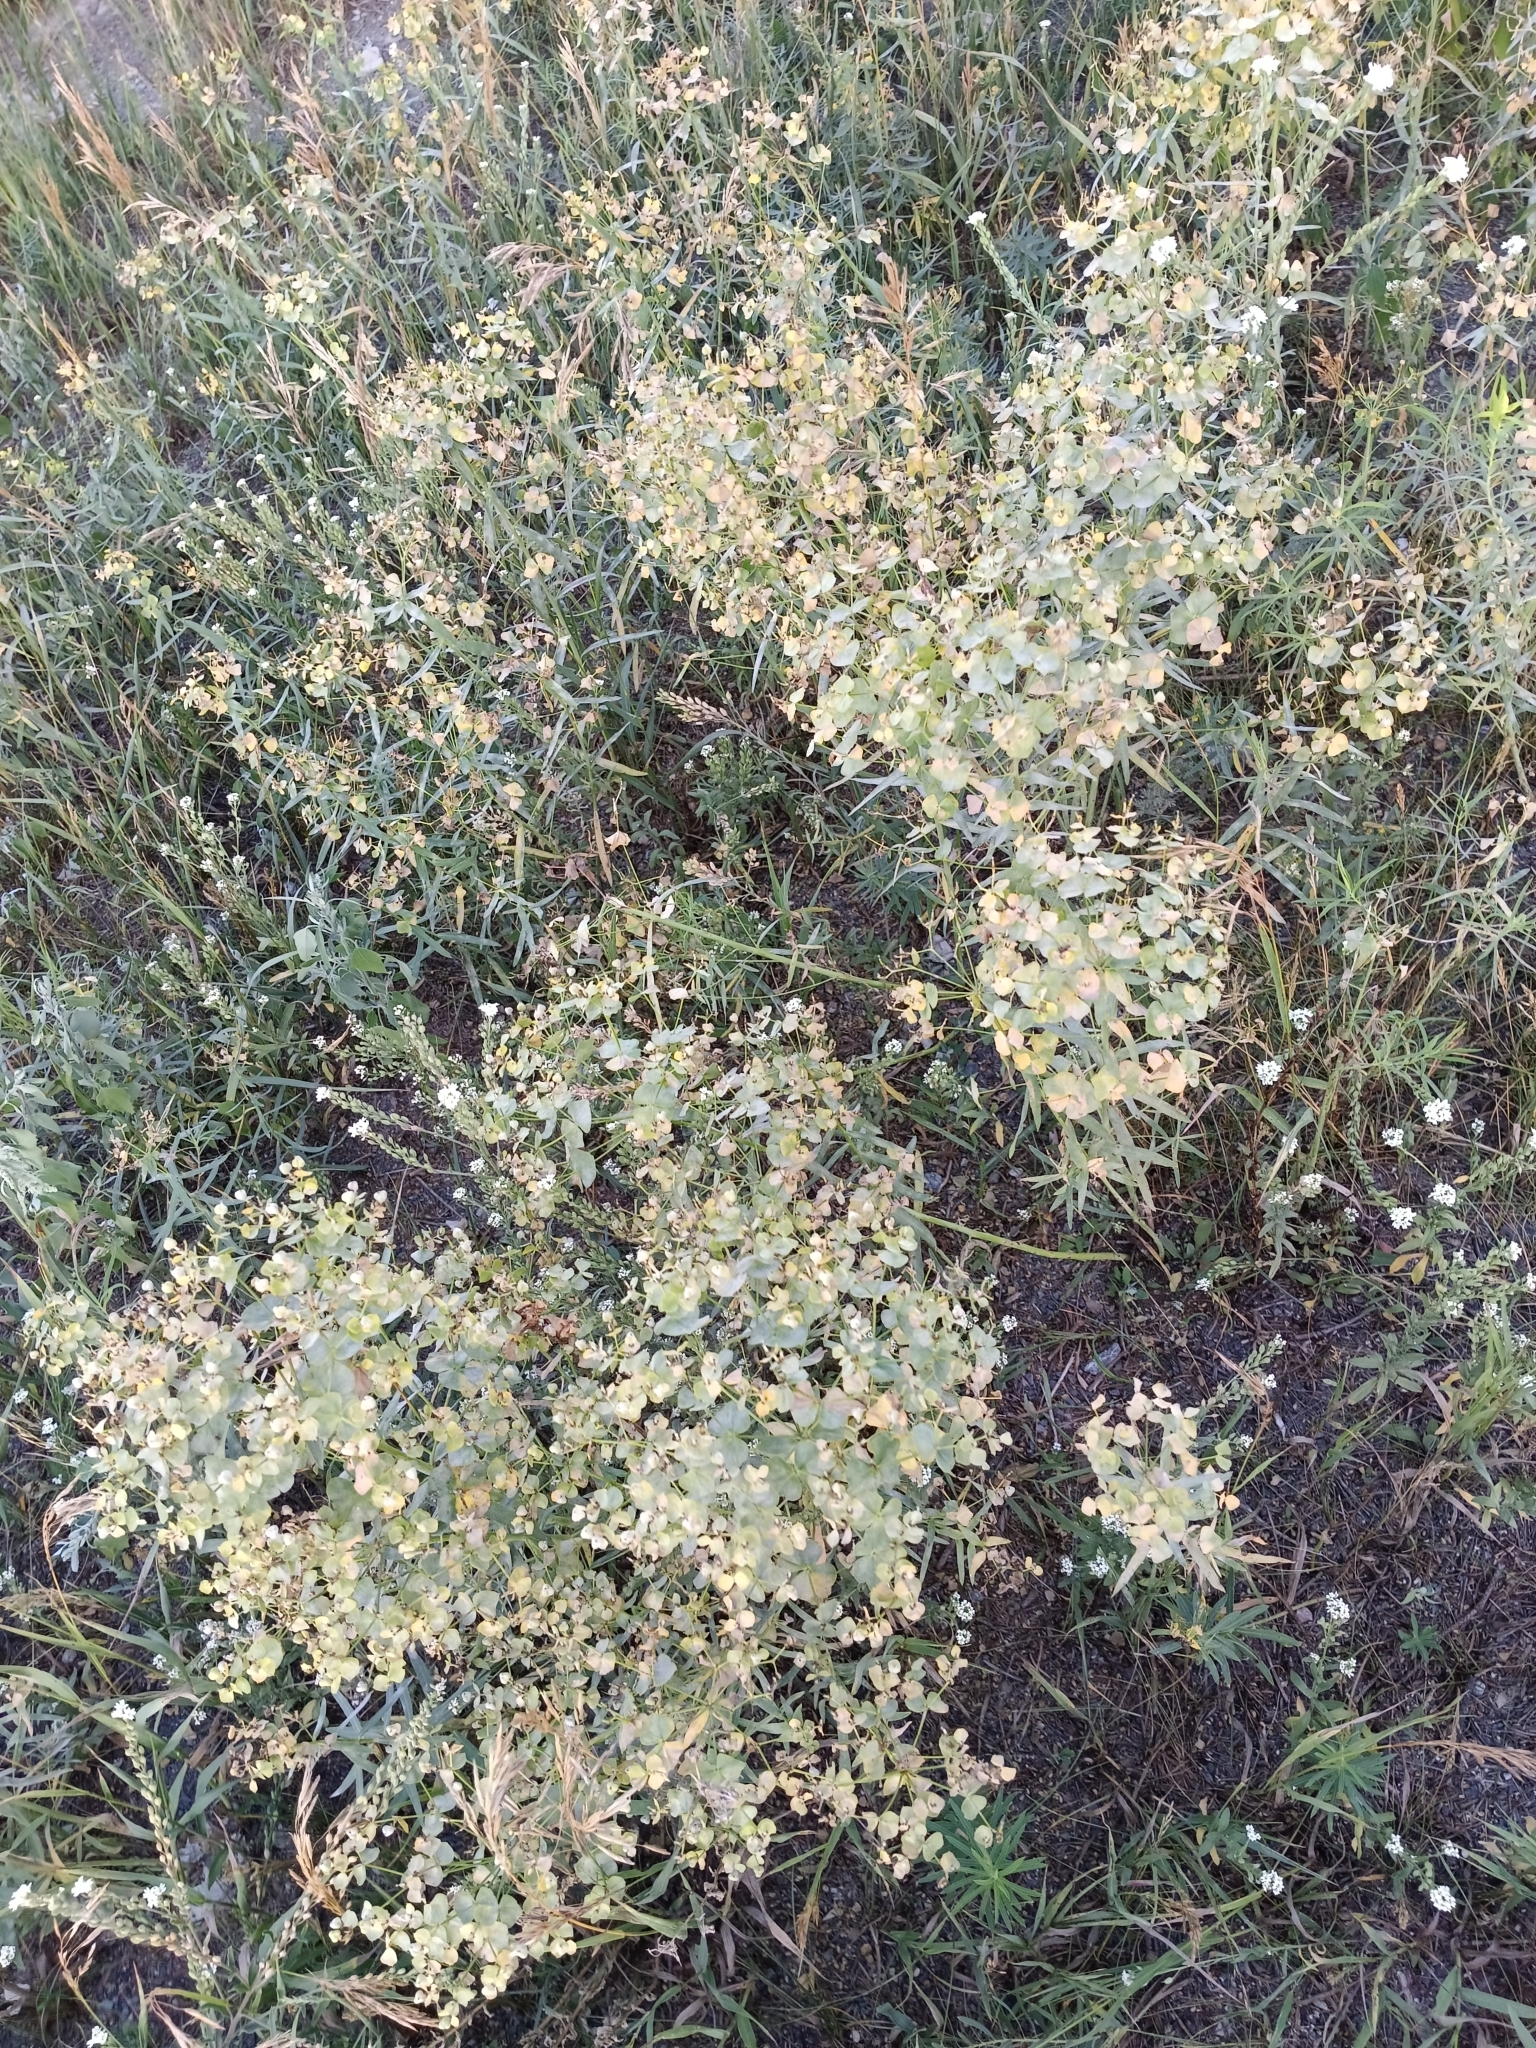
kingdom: Plantae
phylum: Tracheophyta
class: Magnoliopsida
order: Malpighiales
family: Euphorbiaceae
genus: Euphorbia
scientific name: Euphorbia virgata
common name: Leafy spurge
